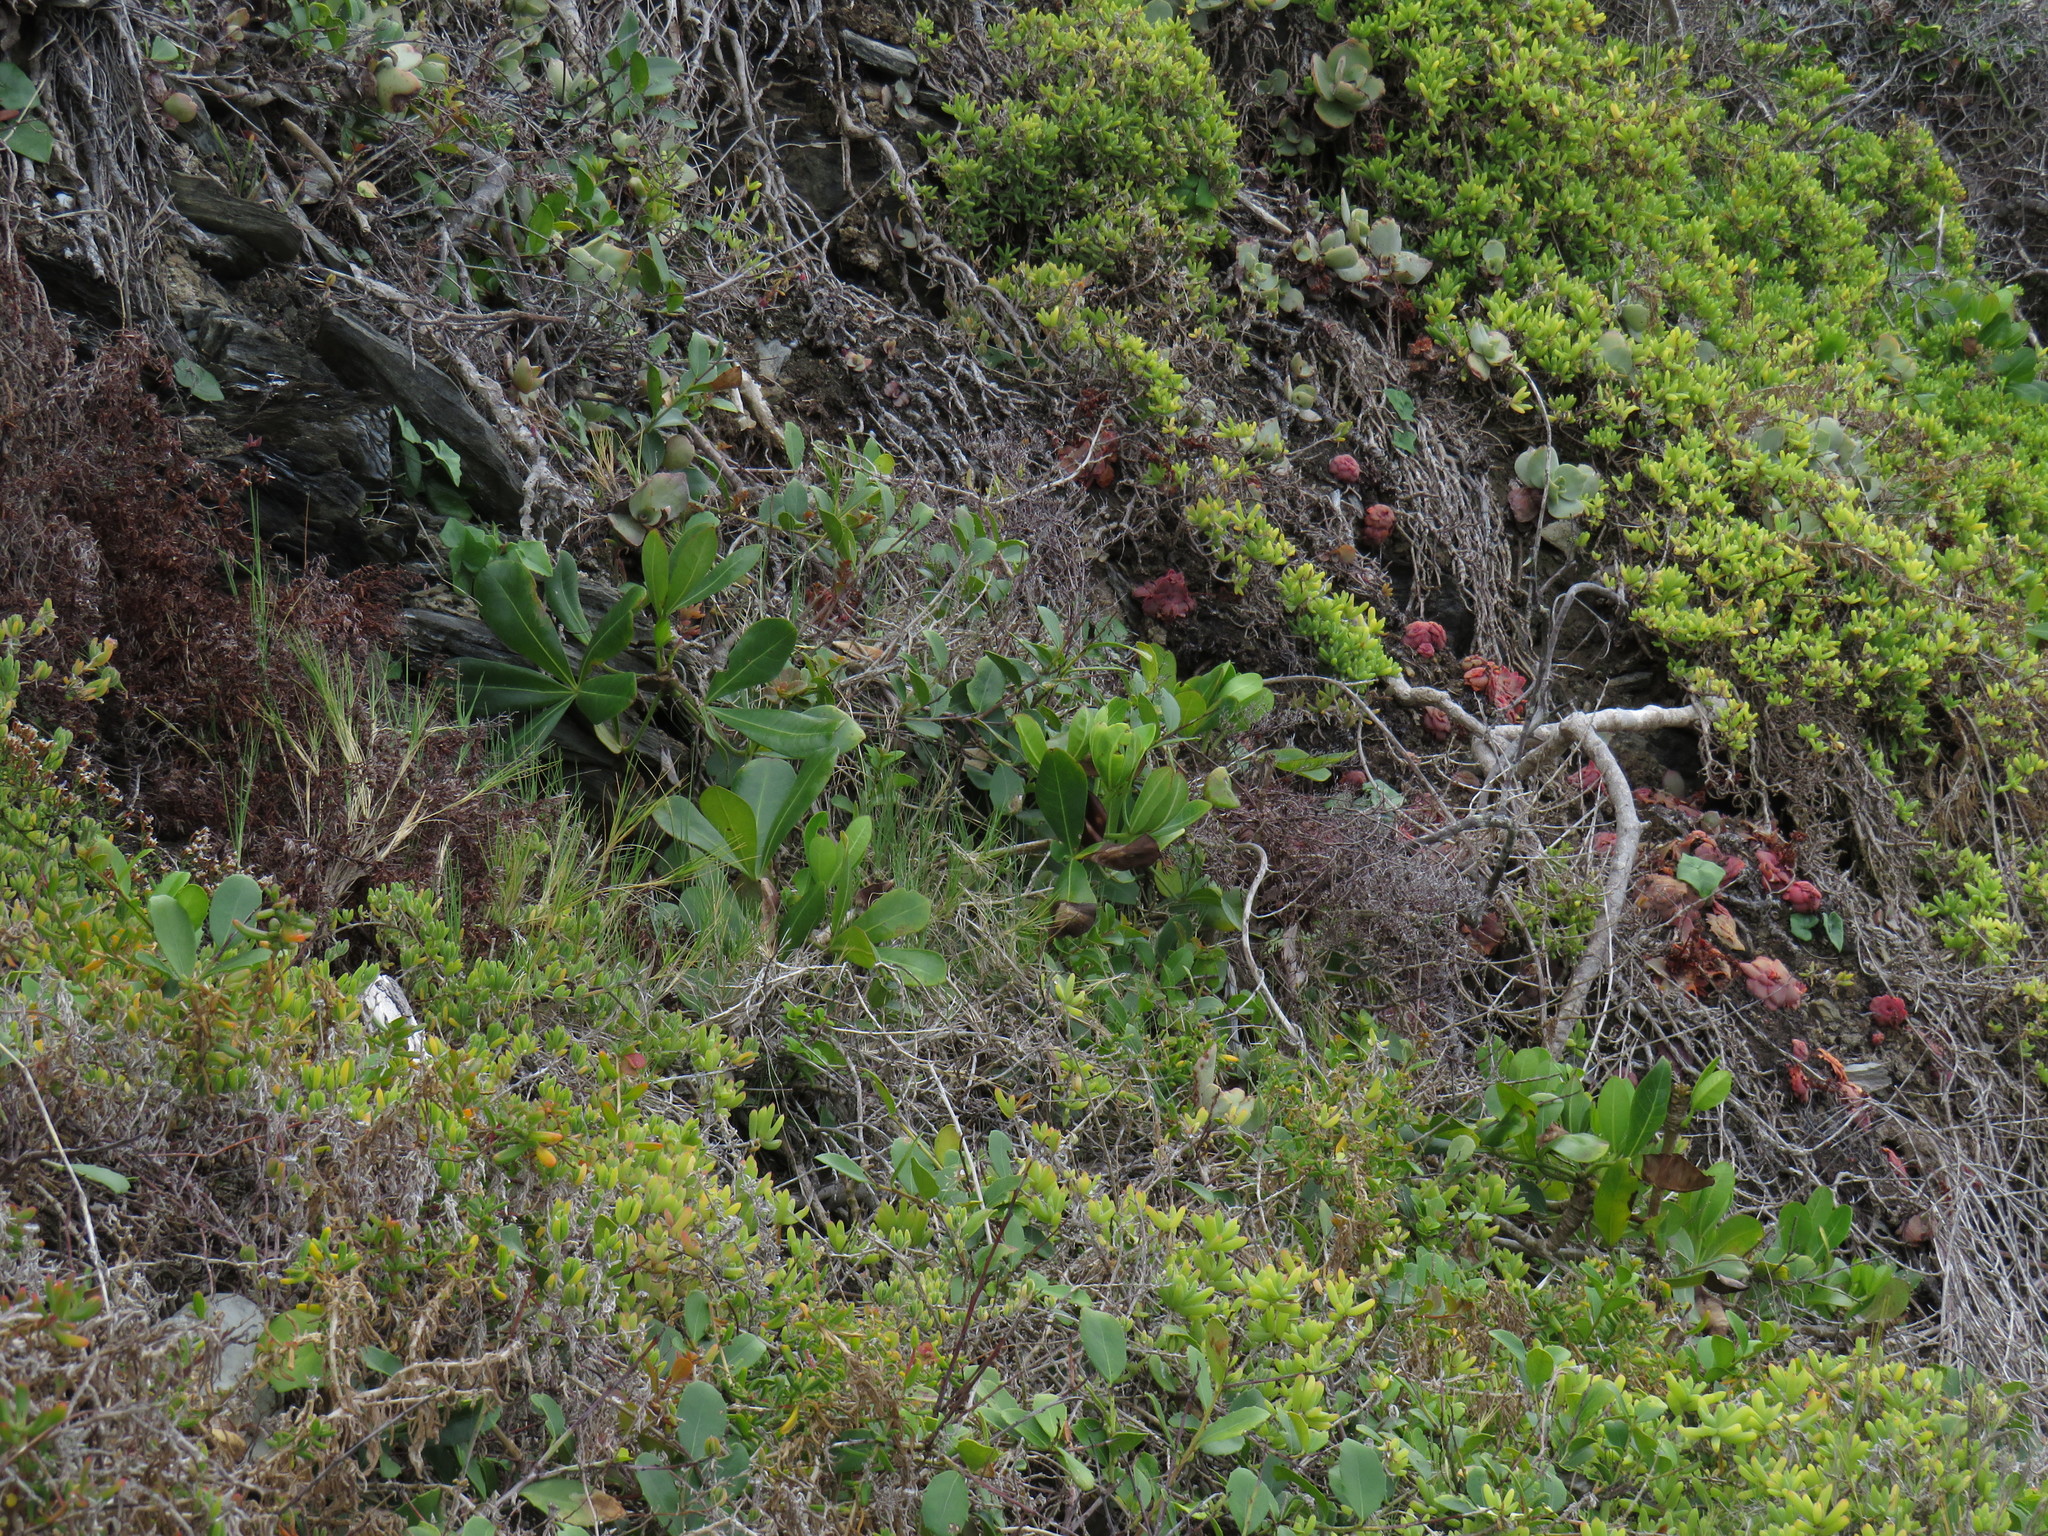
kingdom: Plantae
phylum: Tracheophyta
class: Magnoliopsida
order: Apiales
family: Araliaceae
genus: Cussonia
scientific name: Cussonia thyrsiflora
